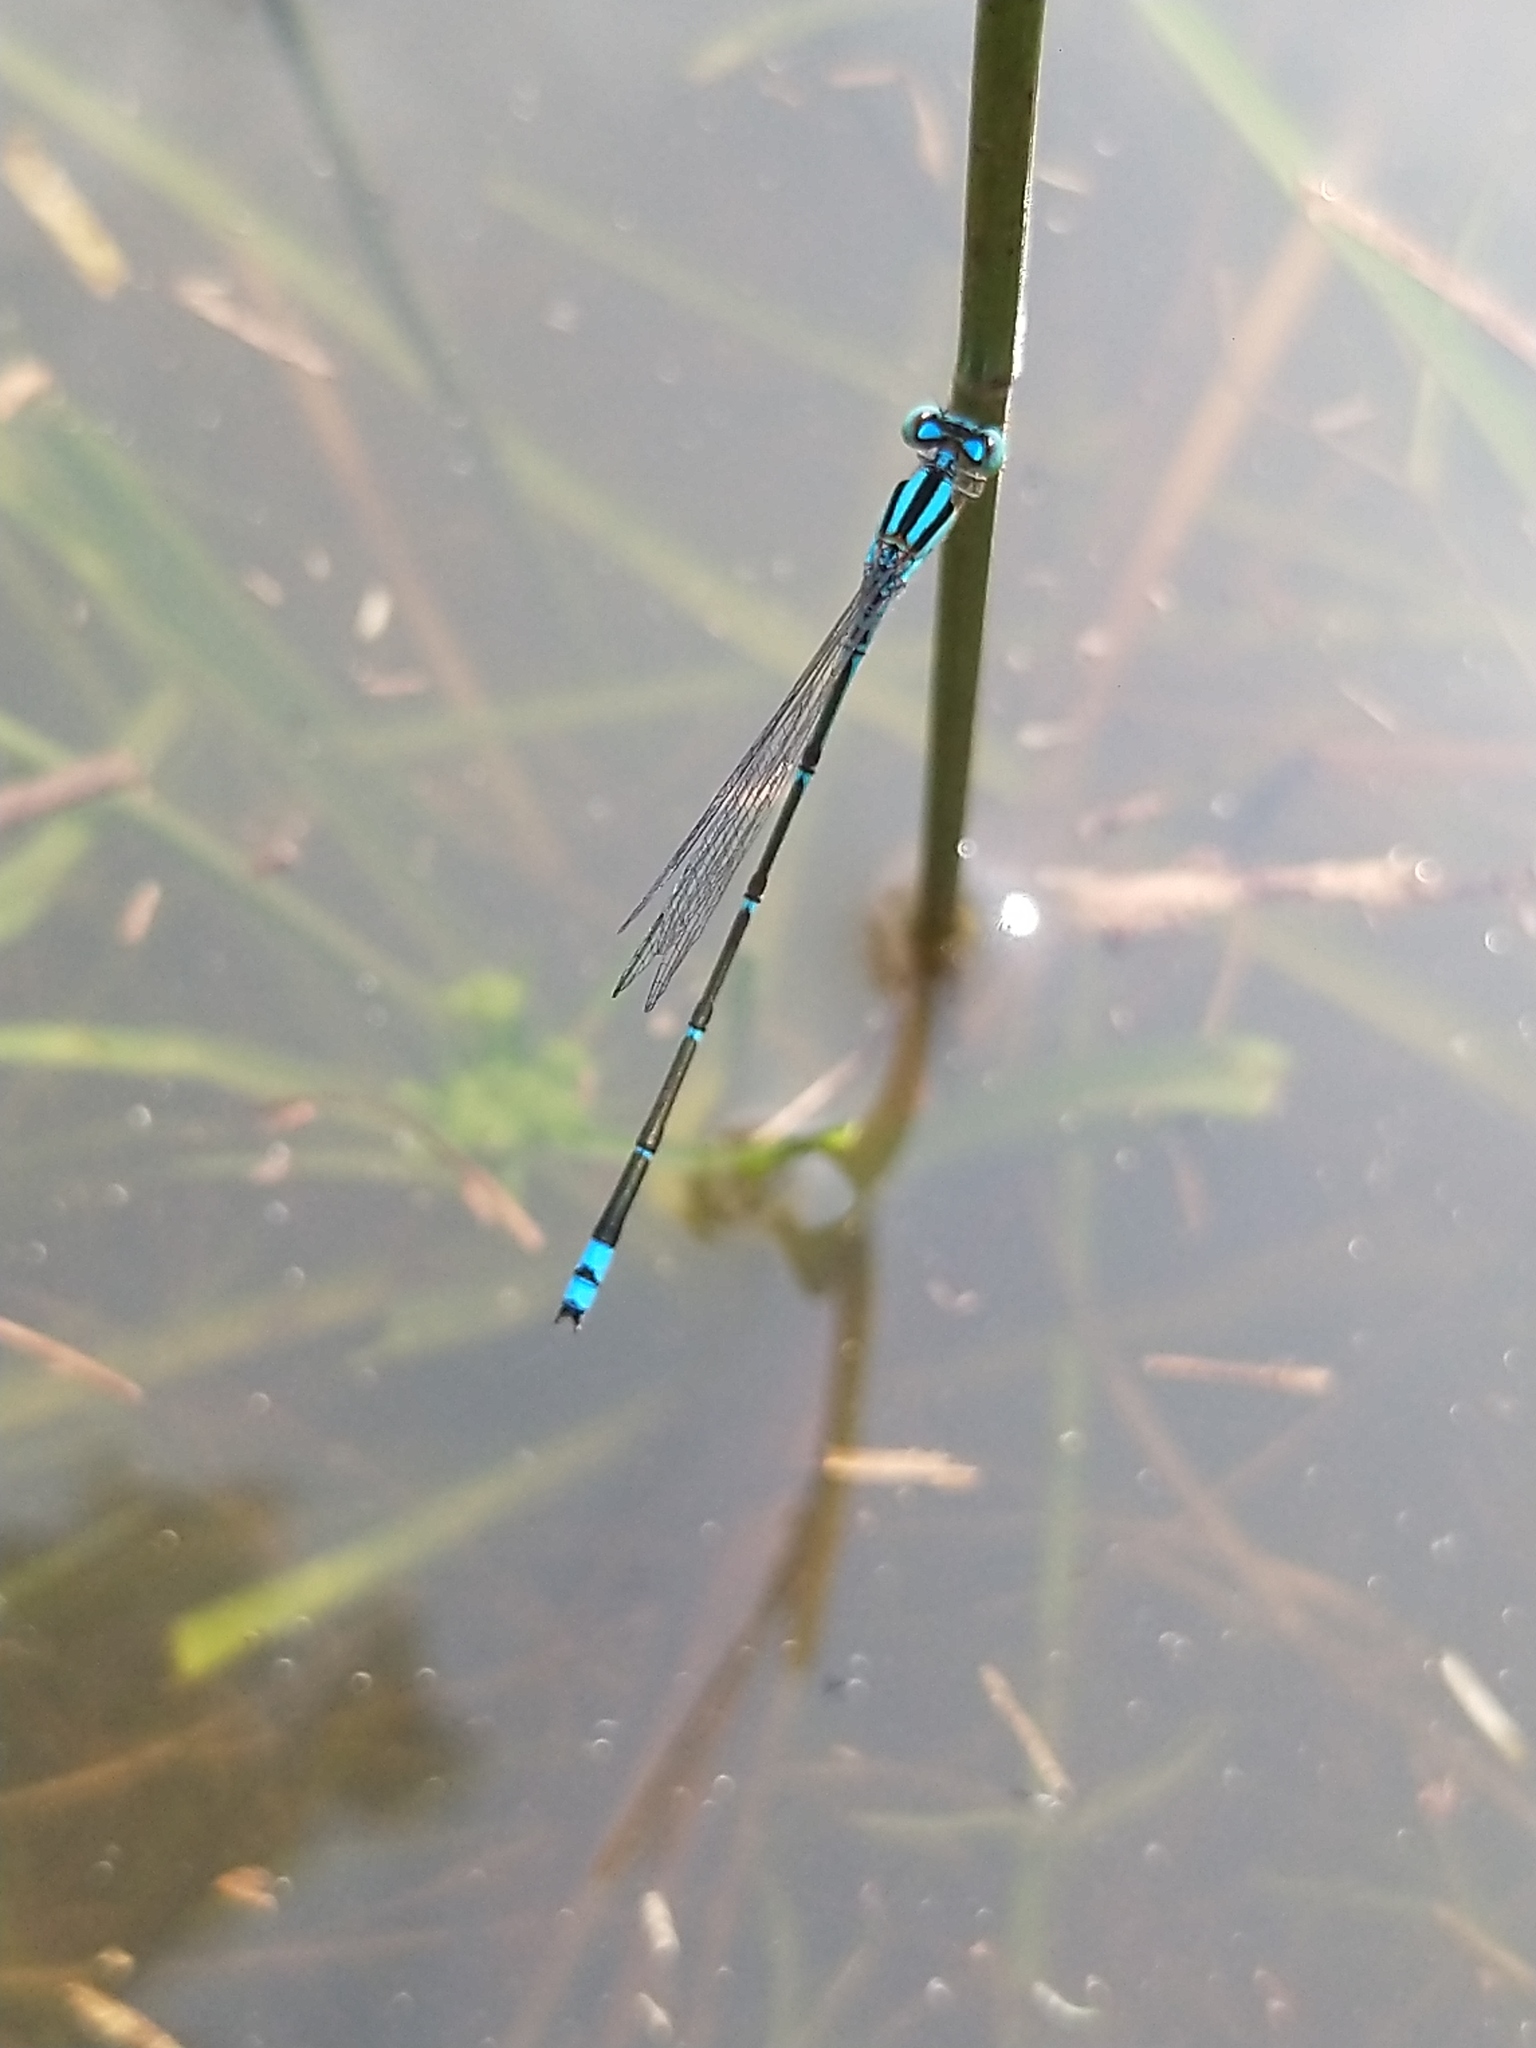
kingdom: Animalia
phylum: Arthropoda
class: Insecta
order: Odonata
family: Coenagrionidae
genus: Pseudagrion
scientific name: Pseudagrion microcephalum
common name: Blue riverdamsel
